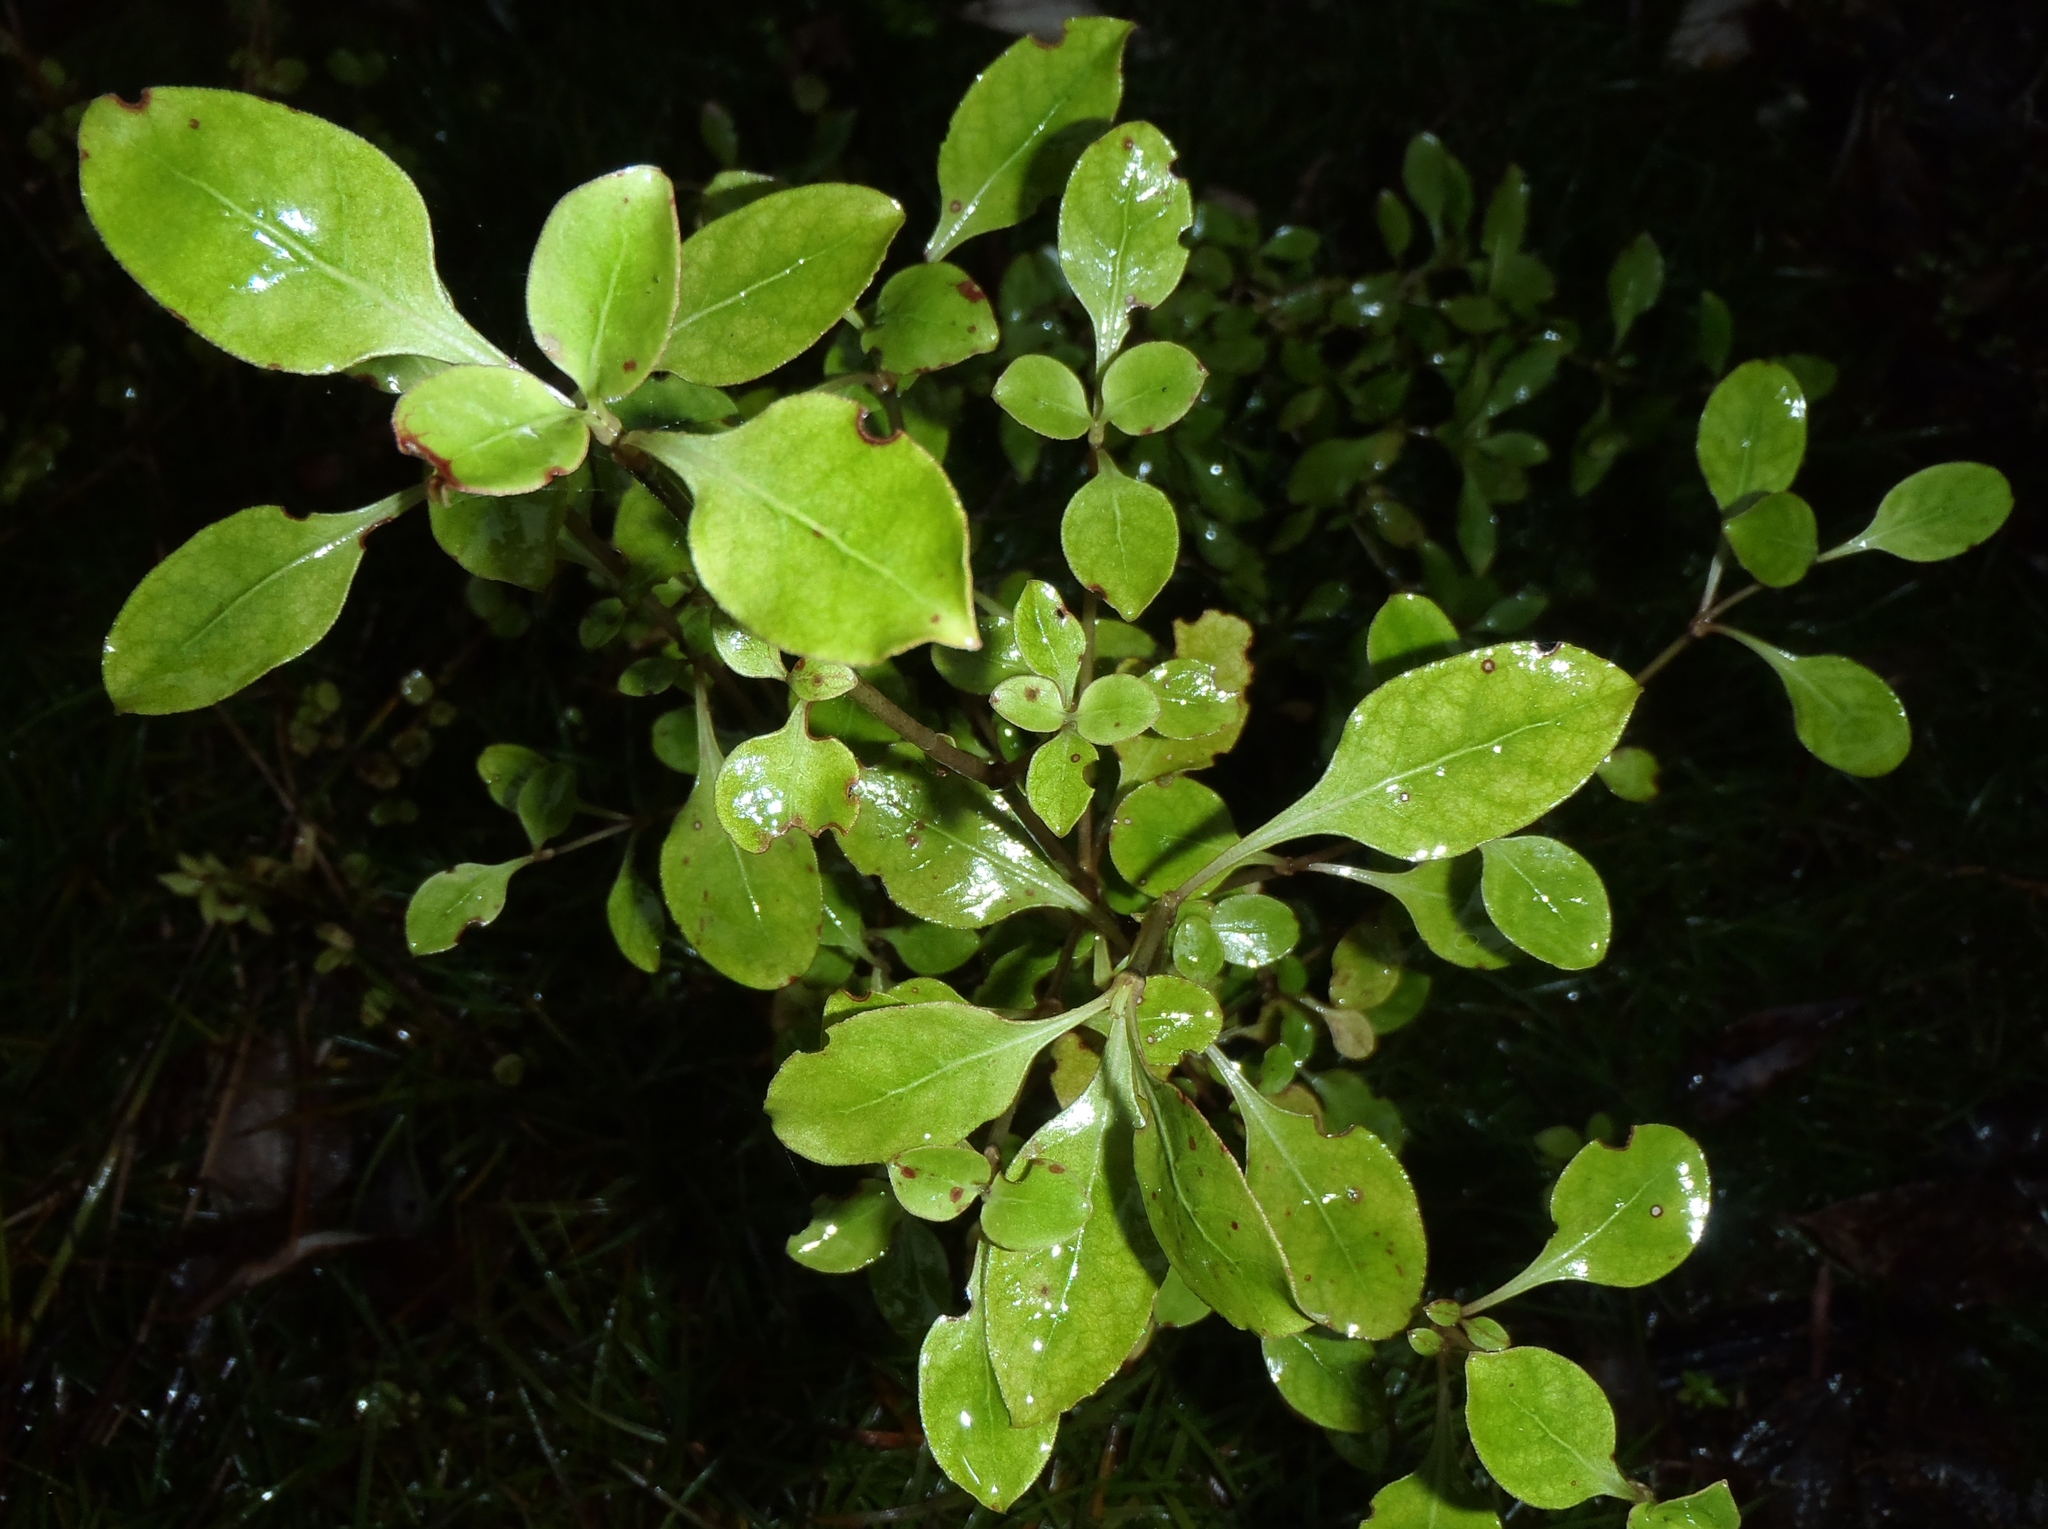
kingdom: Plantae
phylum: Tracheophyta
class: Magnoliopsida
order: Gentianales
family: Rubiaceae
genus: Coprosma
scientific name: Coprosma foetidissima
